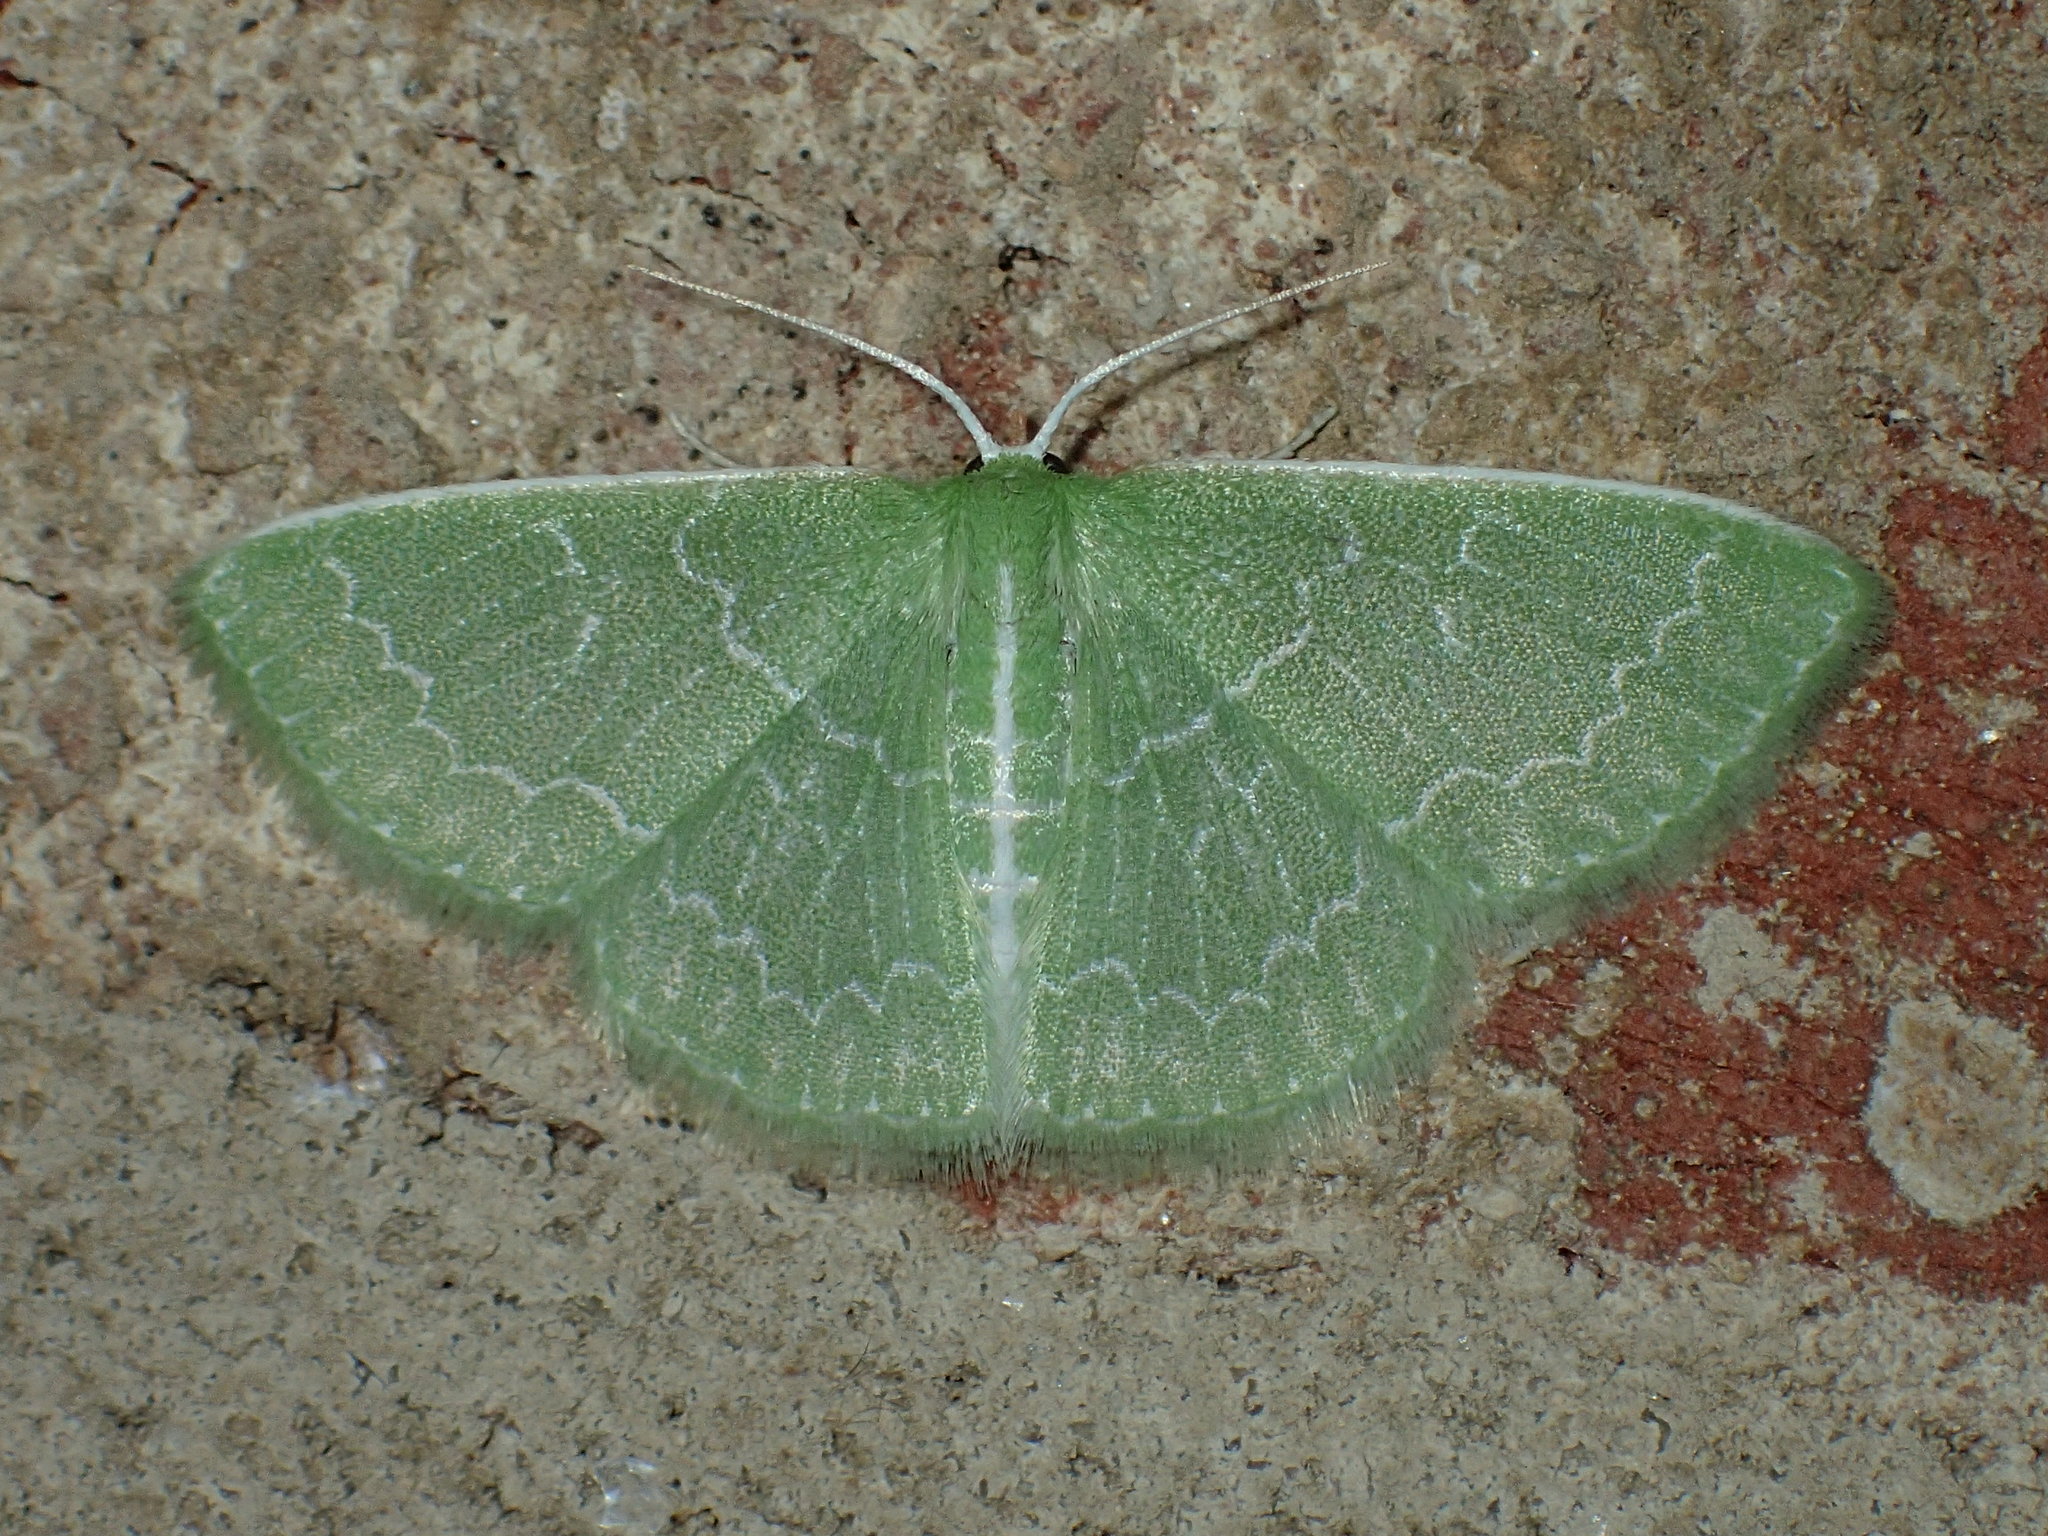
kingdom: Animalia
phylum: Arthropoda
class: Insecta
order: Lepidoptera
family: Geometridae
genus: Synchlora
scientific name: Synchlora frondaria
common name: Southern emerald
